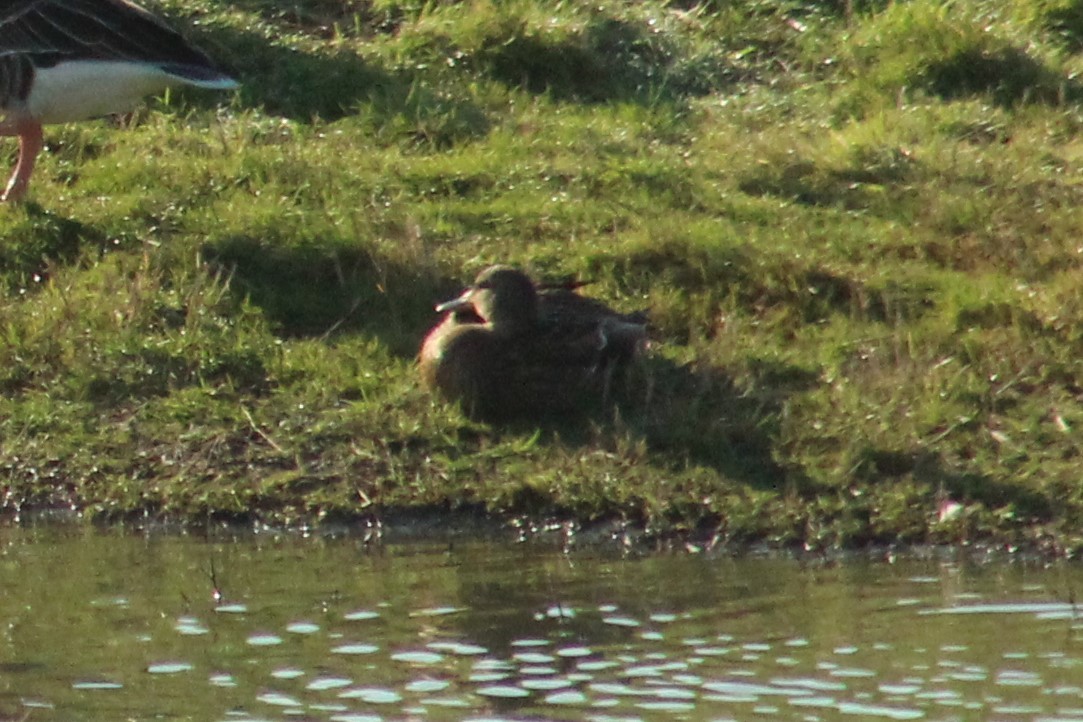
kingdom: Animalia
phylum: Chordata
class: Aves
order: Anseriformes
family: Anatidae
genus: Anas
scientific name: Anas platyrhynchos
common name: Mallard
